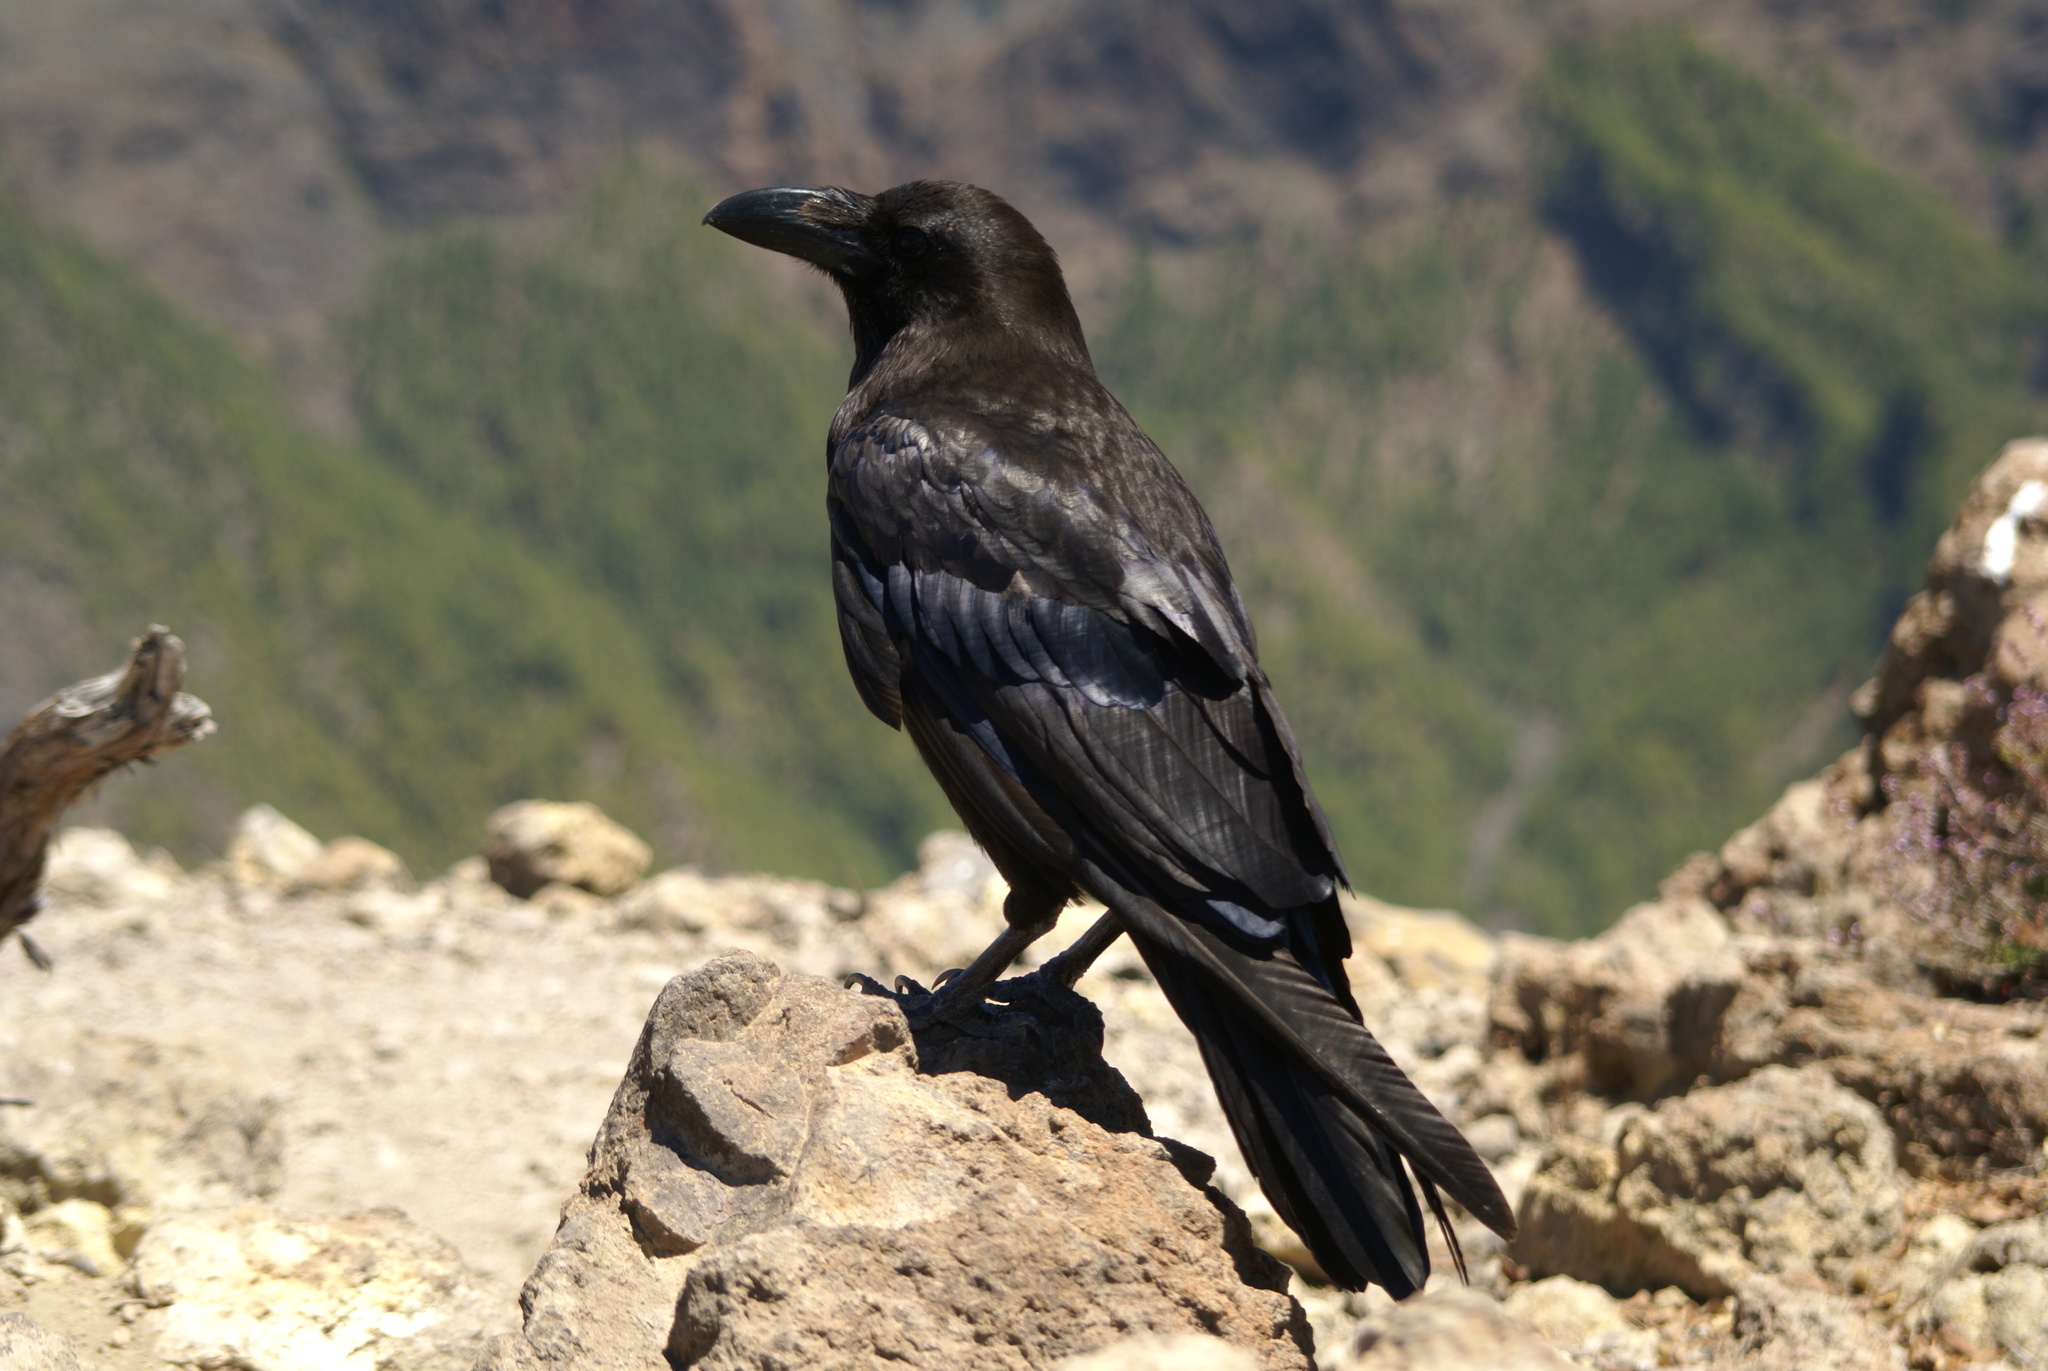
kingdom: Animalia
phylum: Chordata
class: Aves
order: Passeriformes
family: Corvidae
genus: Corvus
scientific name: Corvus corax
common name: Common raven
